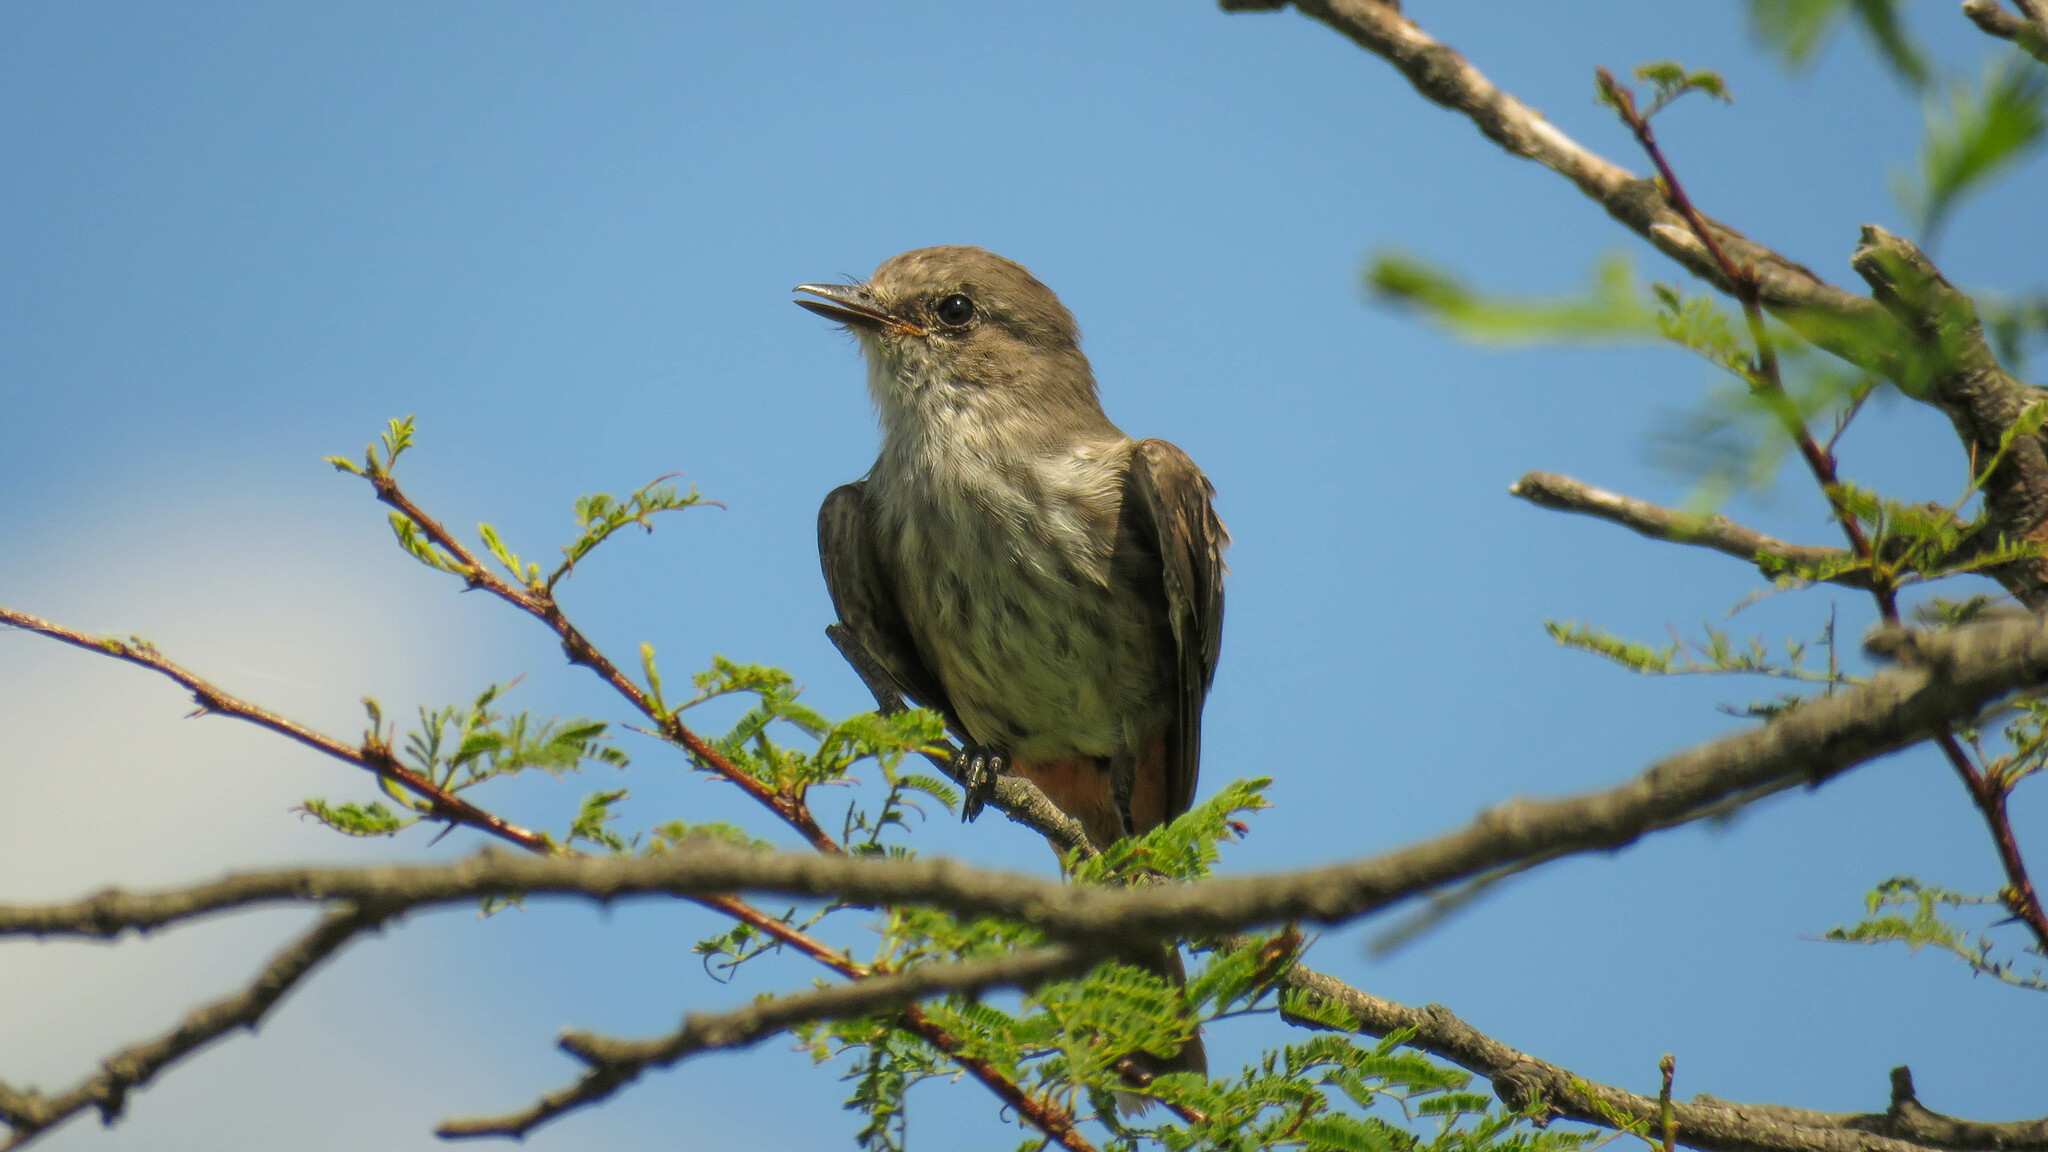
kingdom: Animalia
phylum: Chordata
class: Aves
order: Passeriformes
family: Tyrannidae
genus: Pyrocephalus
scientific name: Pyrocephalus rubinus
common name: Vermilion flycatcher
